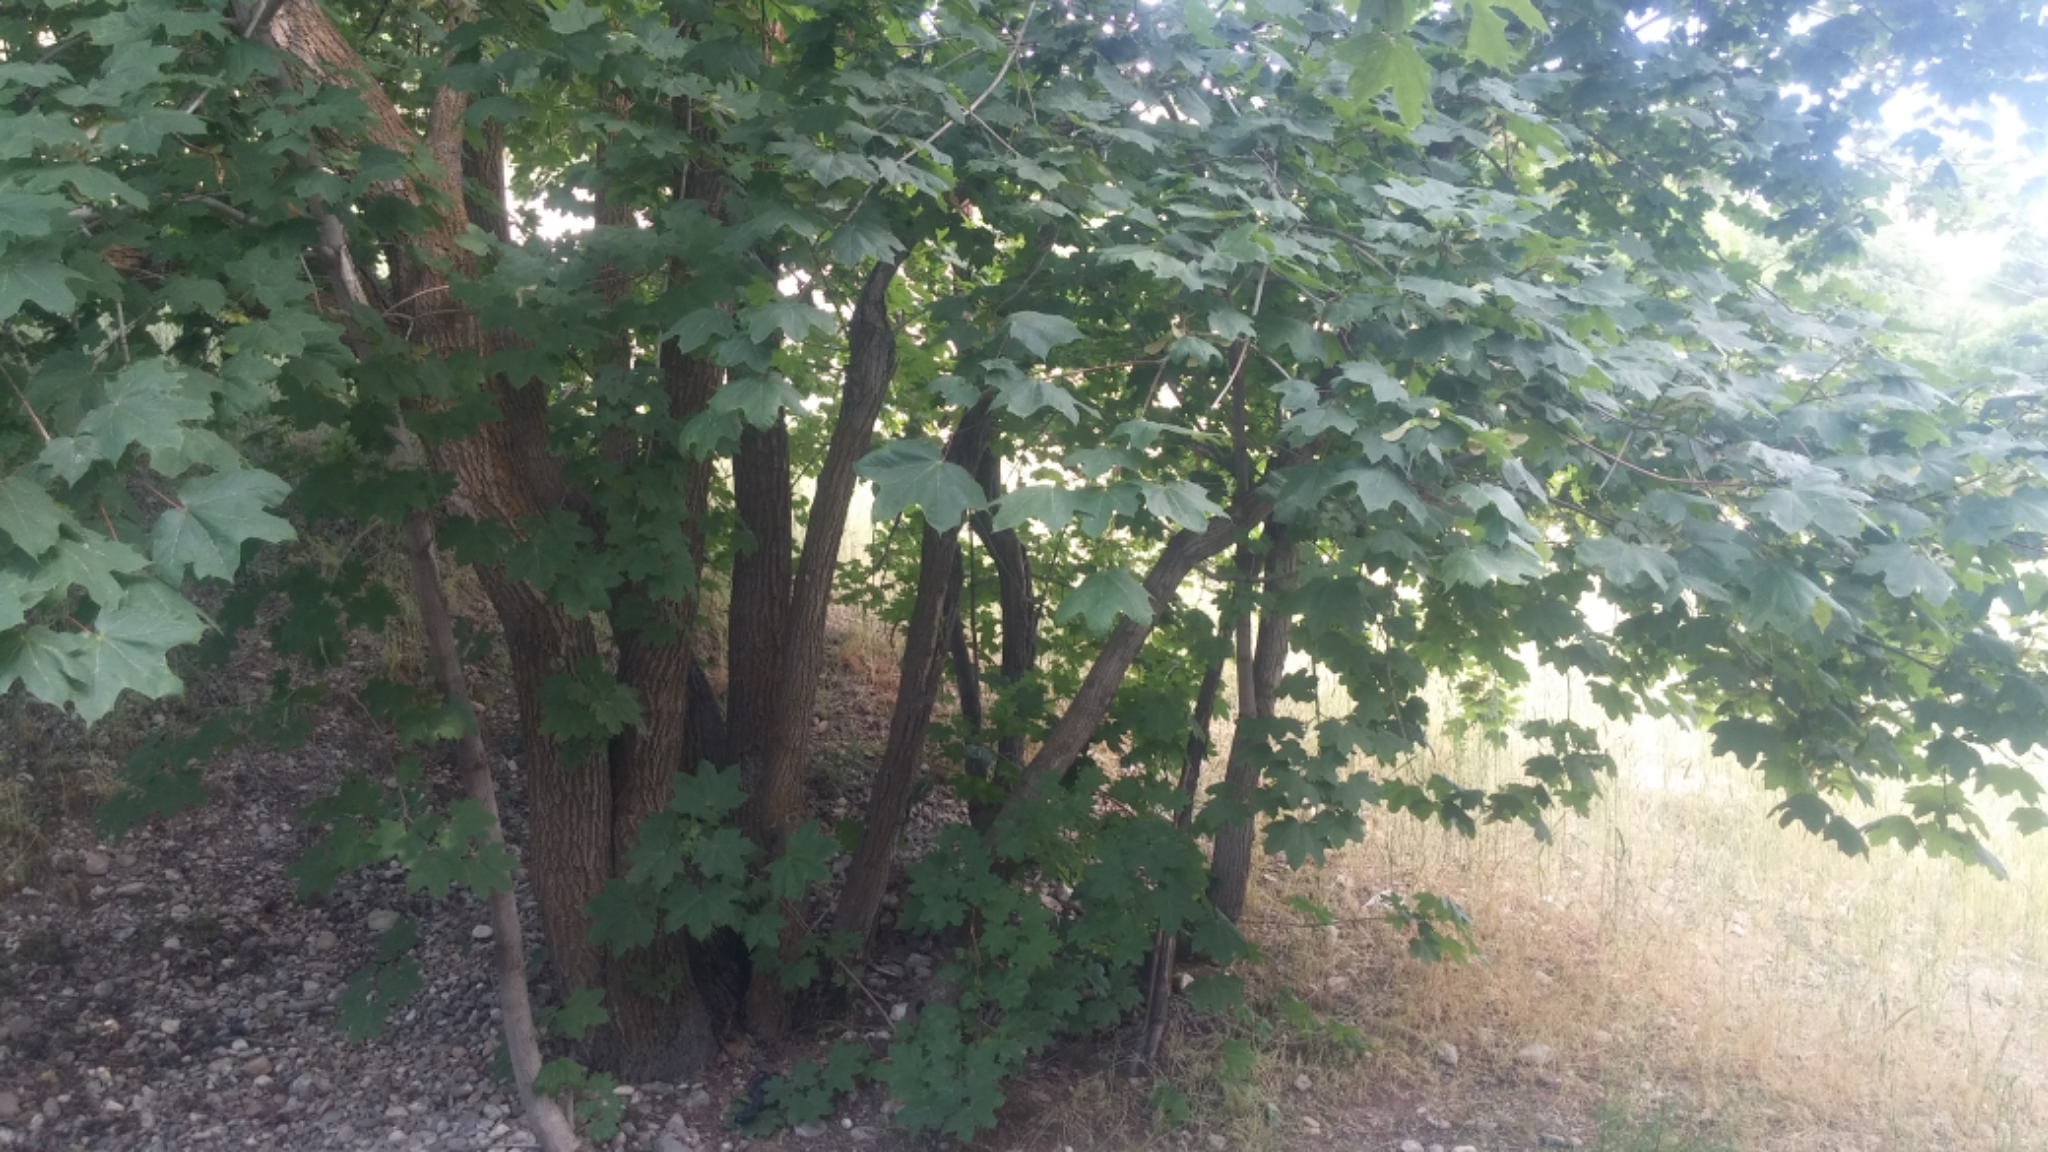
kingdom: Plantae
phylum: Tracheophyta
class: Magnoliopsida
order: Sapindales
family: Sapindaceae
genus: Acer
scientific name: Acer platanoides
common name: Norway maple
